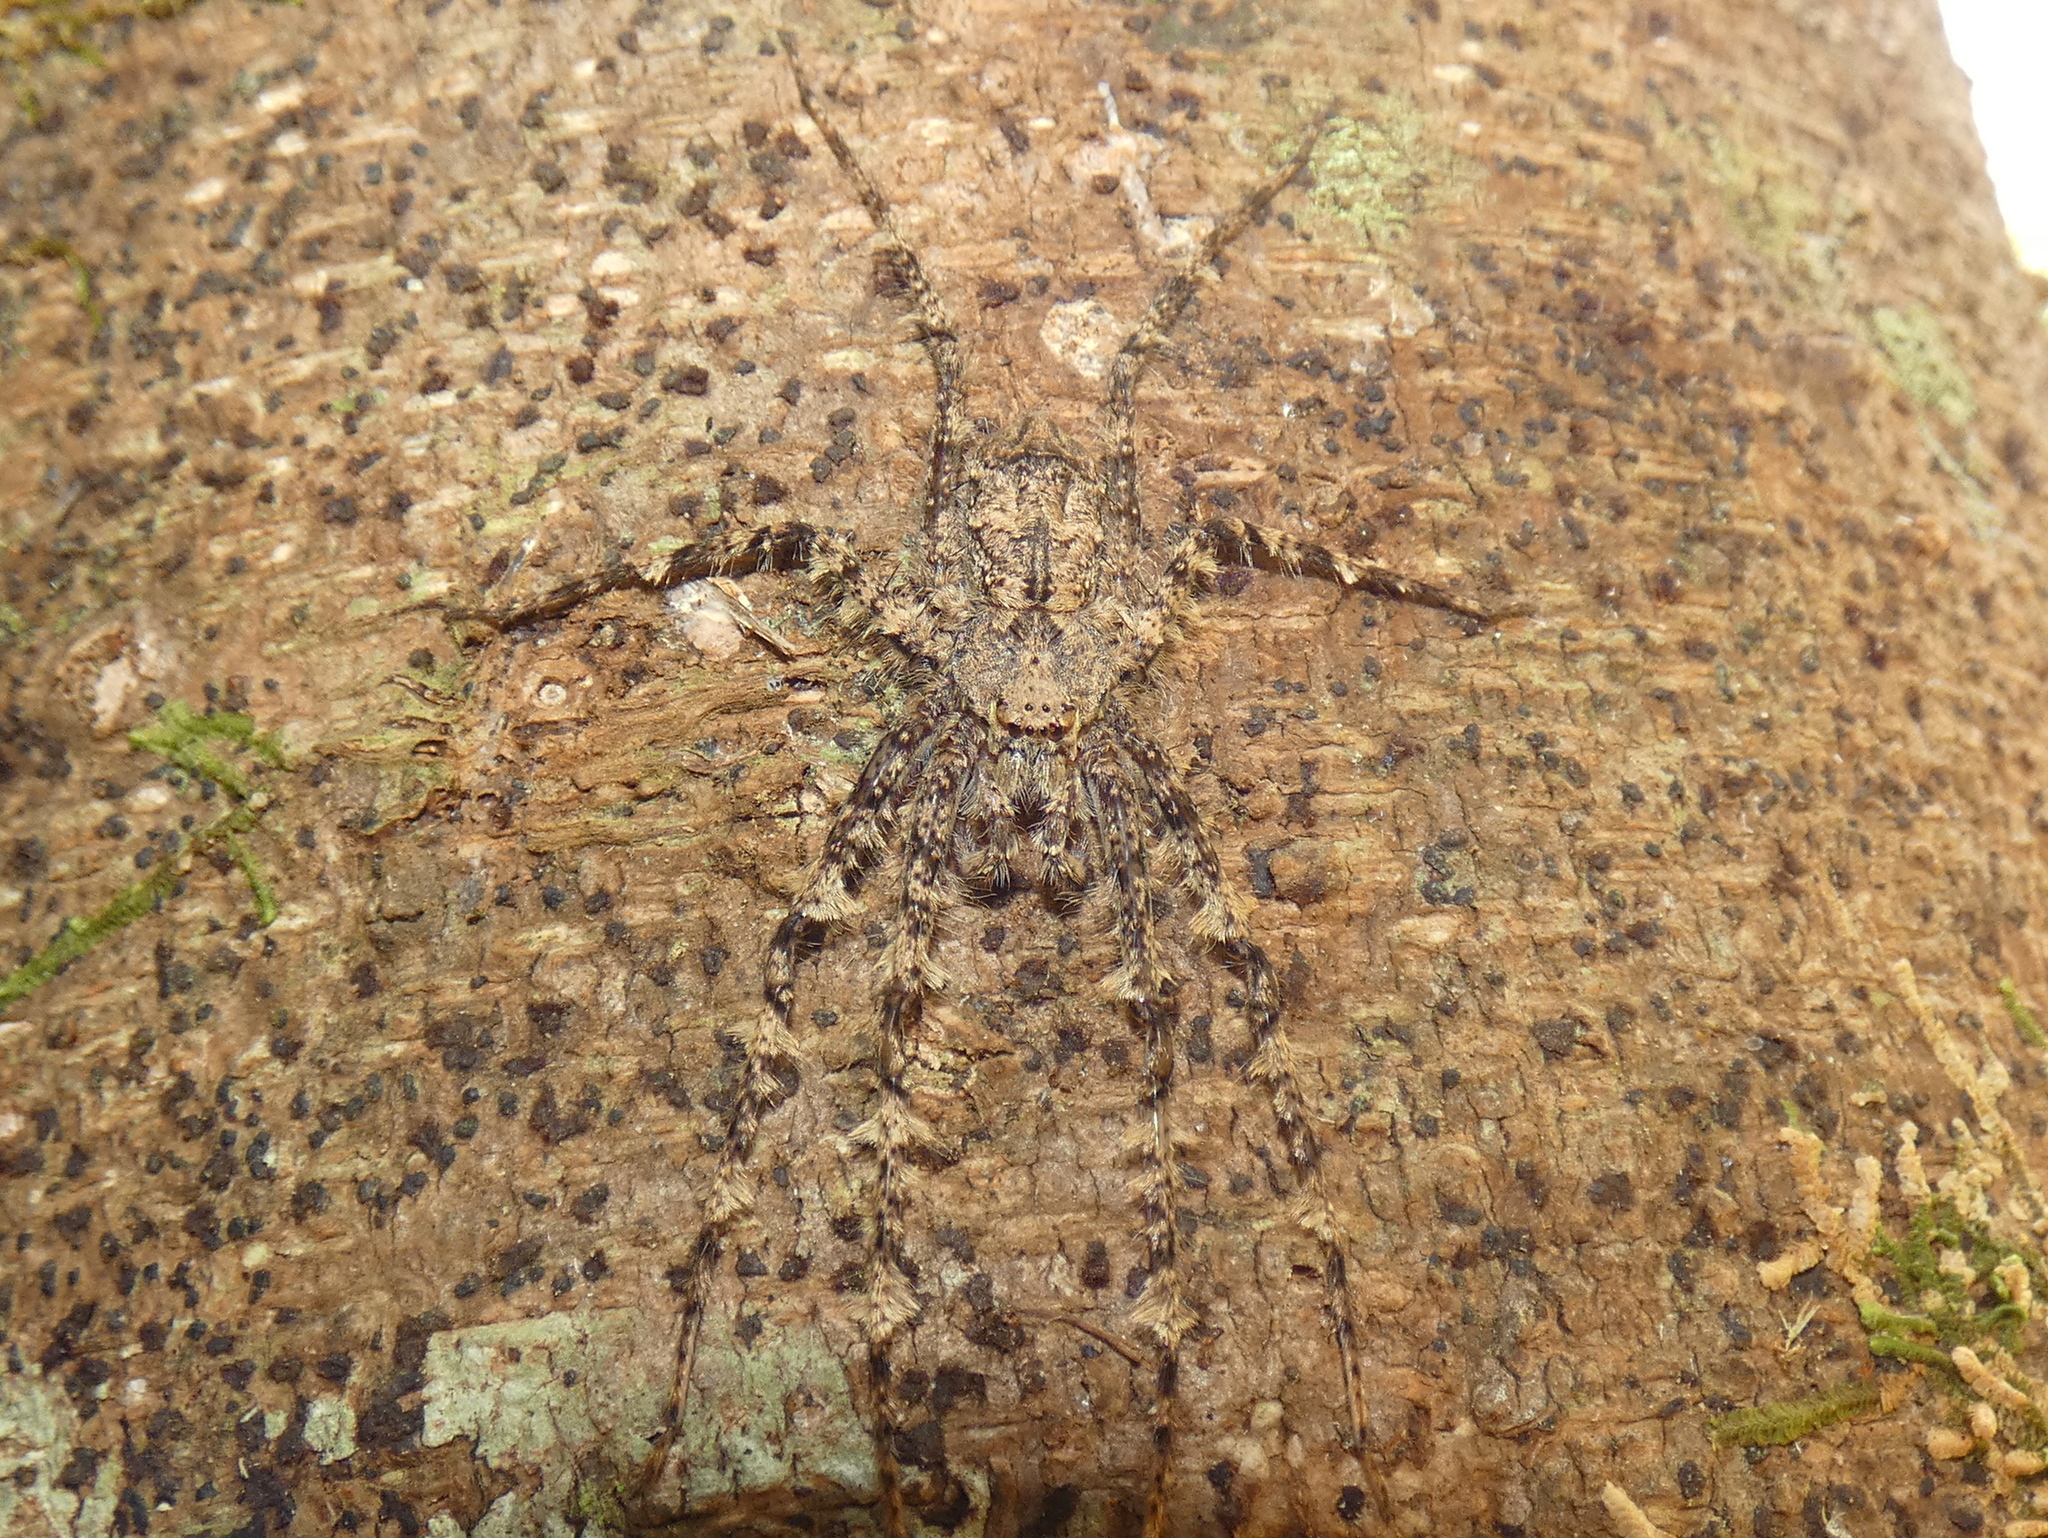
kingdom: Animalia
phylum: Arthropoda
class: Arachnida
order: Araneae
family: Sparassidae
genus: Pandercetes
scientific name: Pandercetes gracilis
